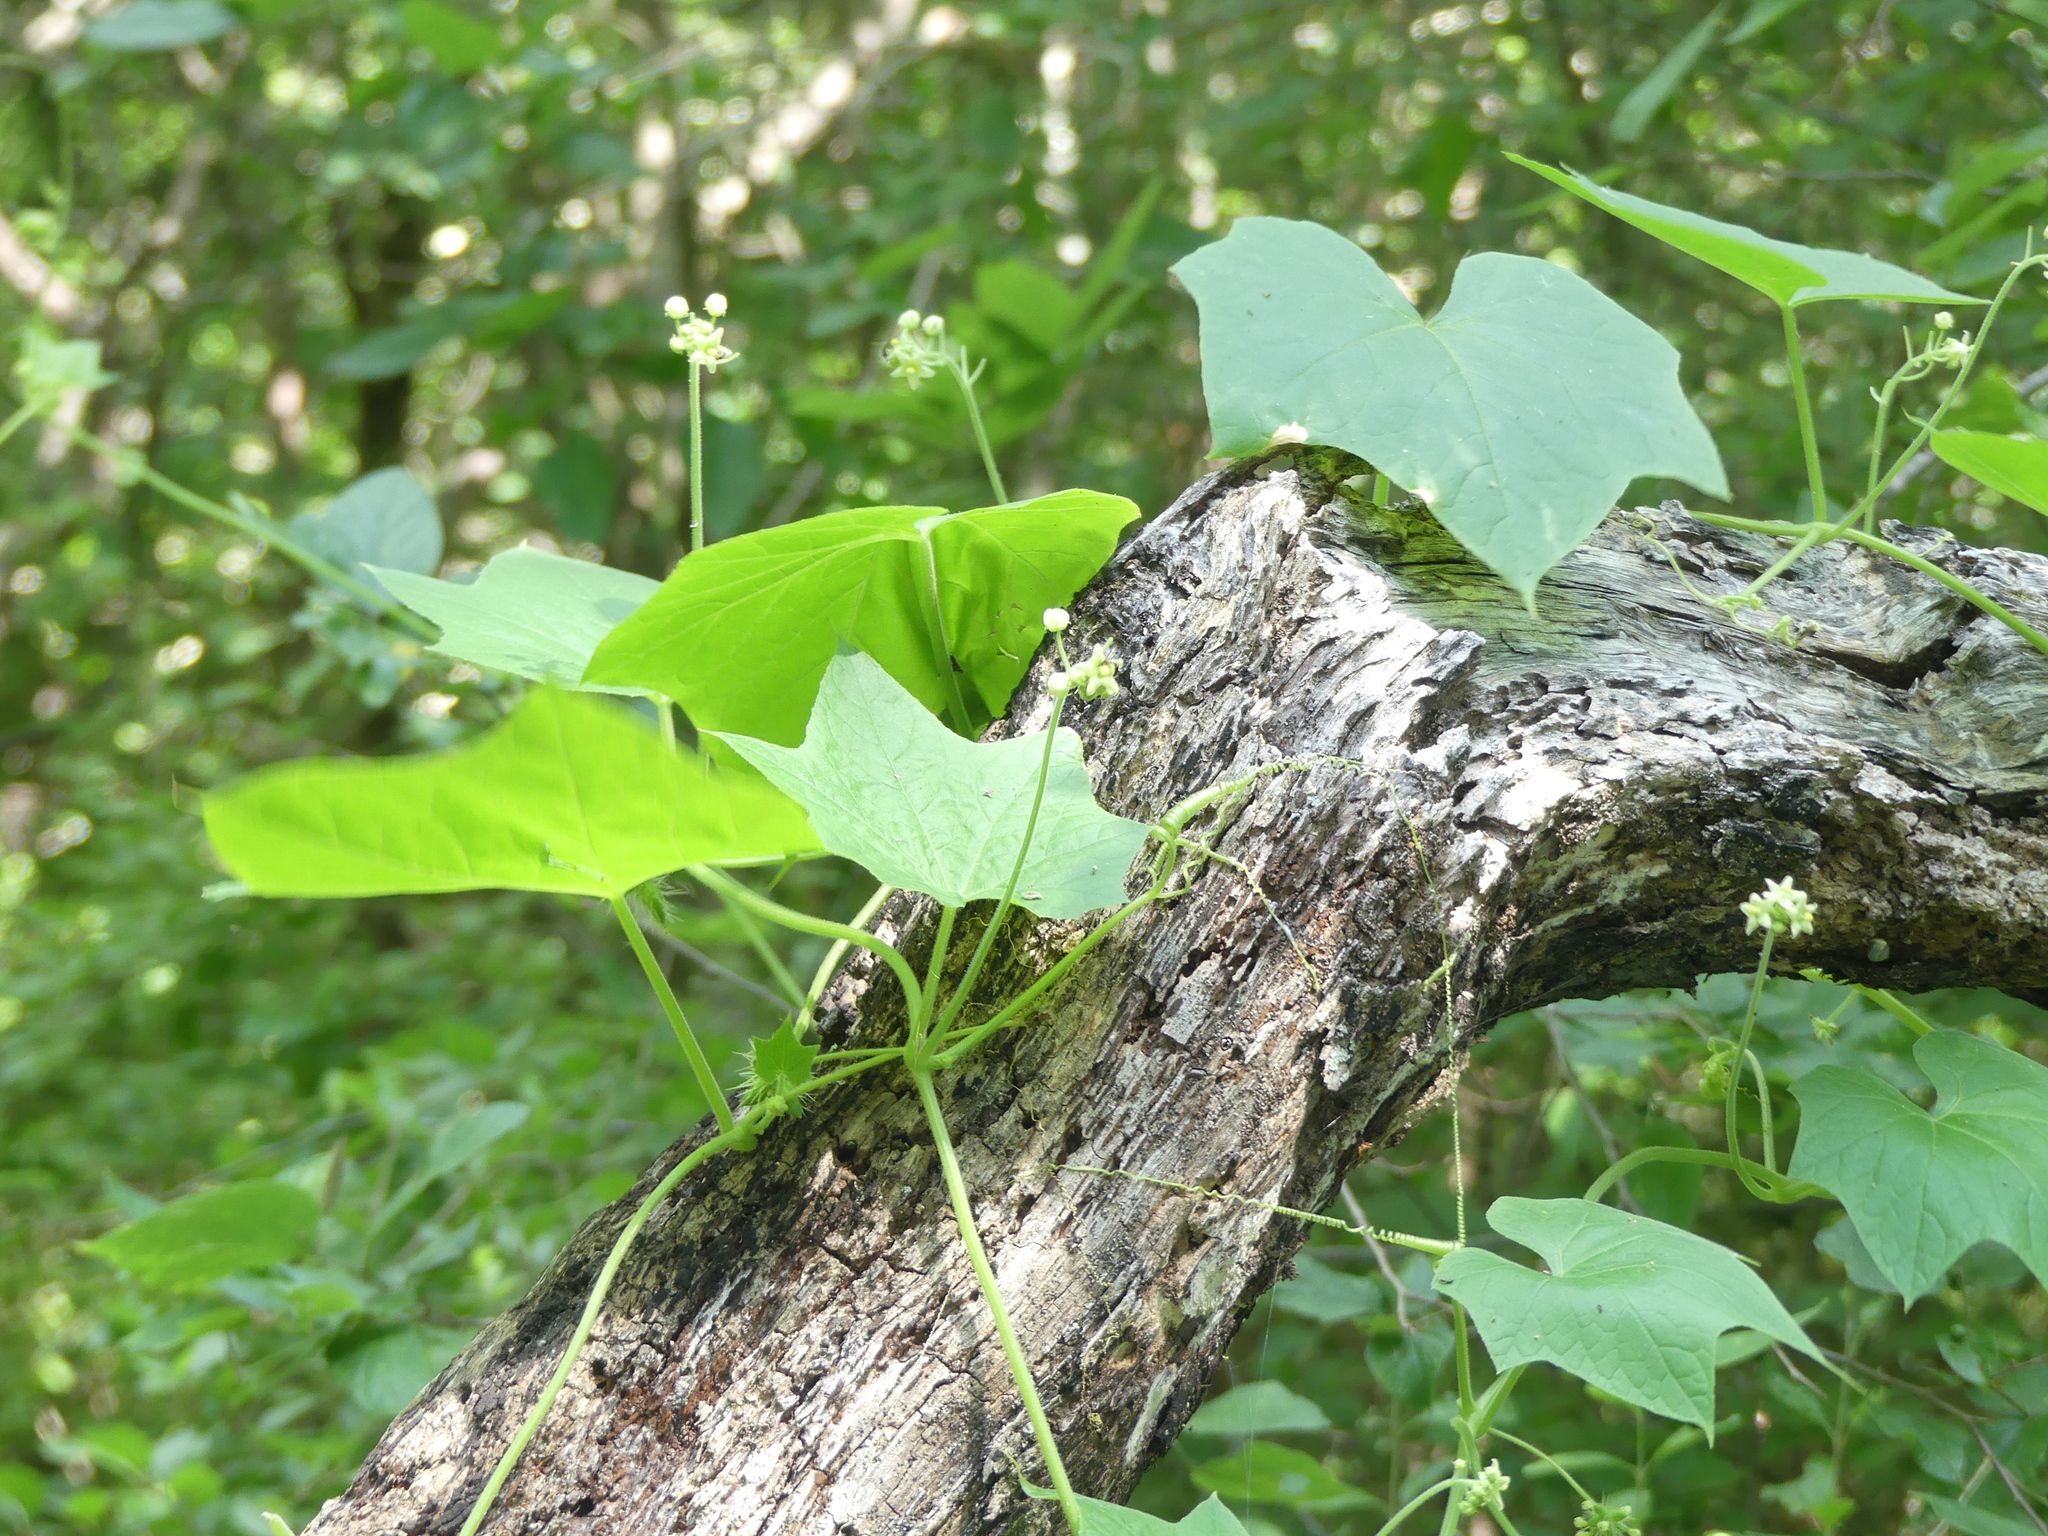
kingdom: Plantae
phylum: Tracheophyta
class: Magnoliopsida
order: Cucurbitales
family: Cucurbitaceae
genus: Sicyos
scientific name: Sicyos angulatus
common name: Angled burr cucumber
